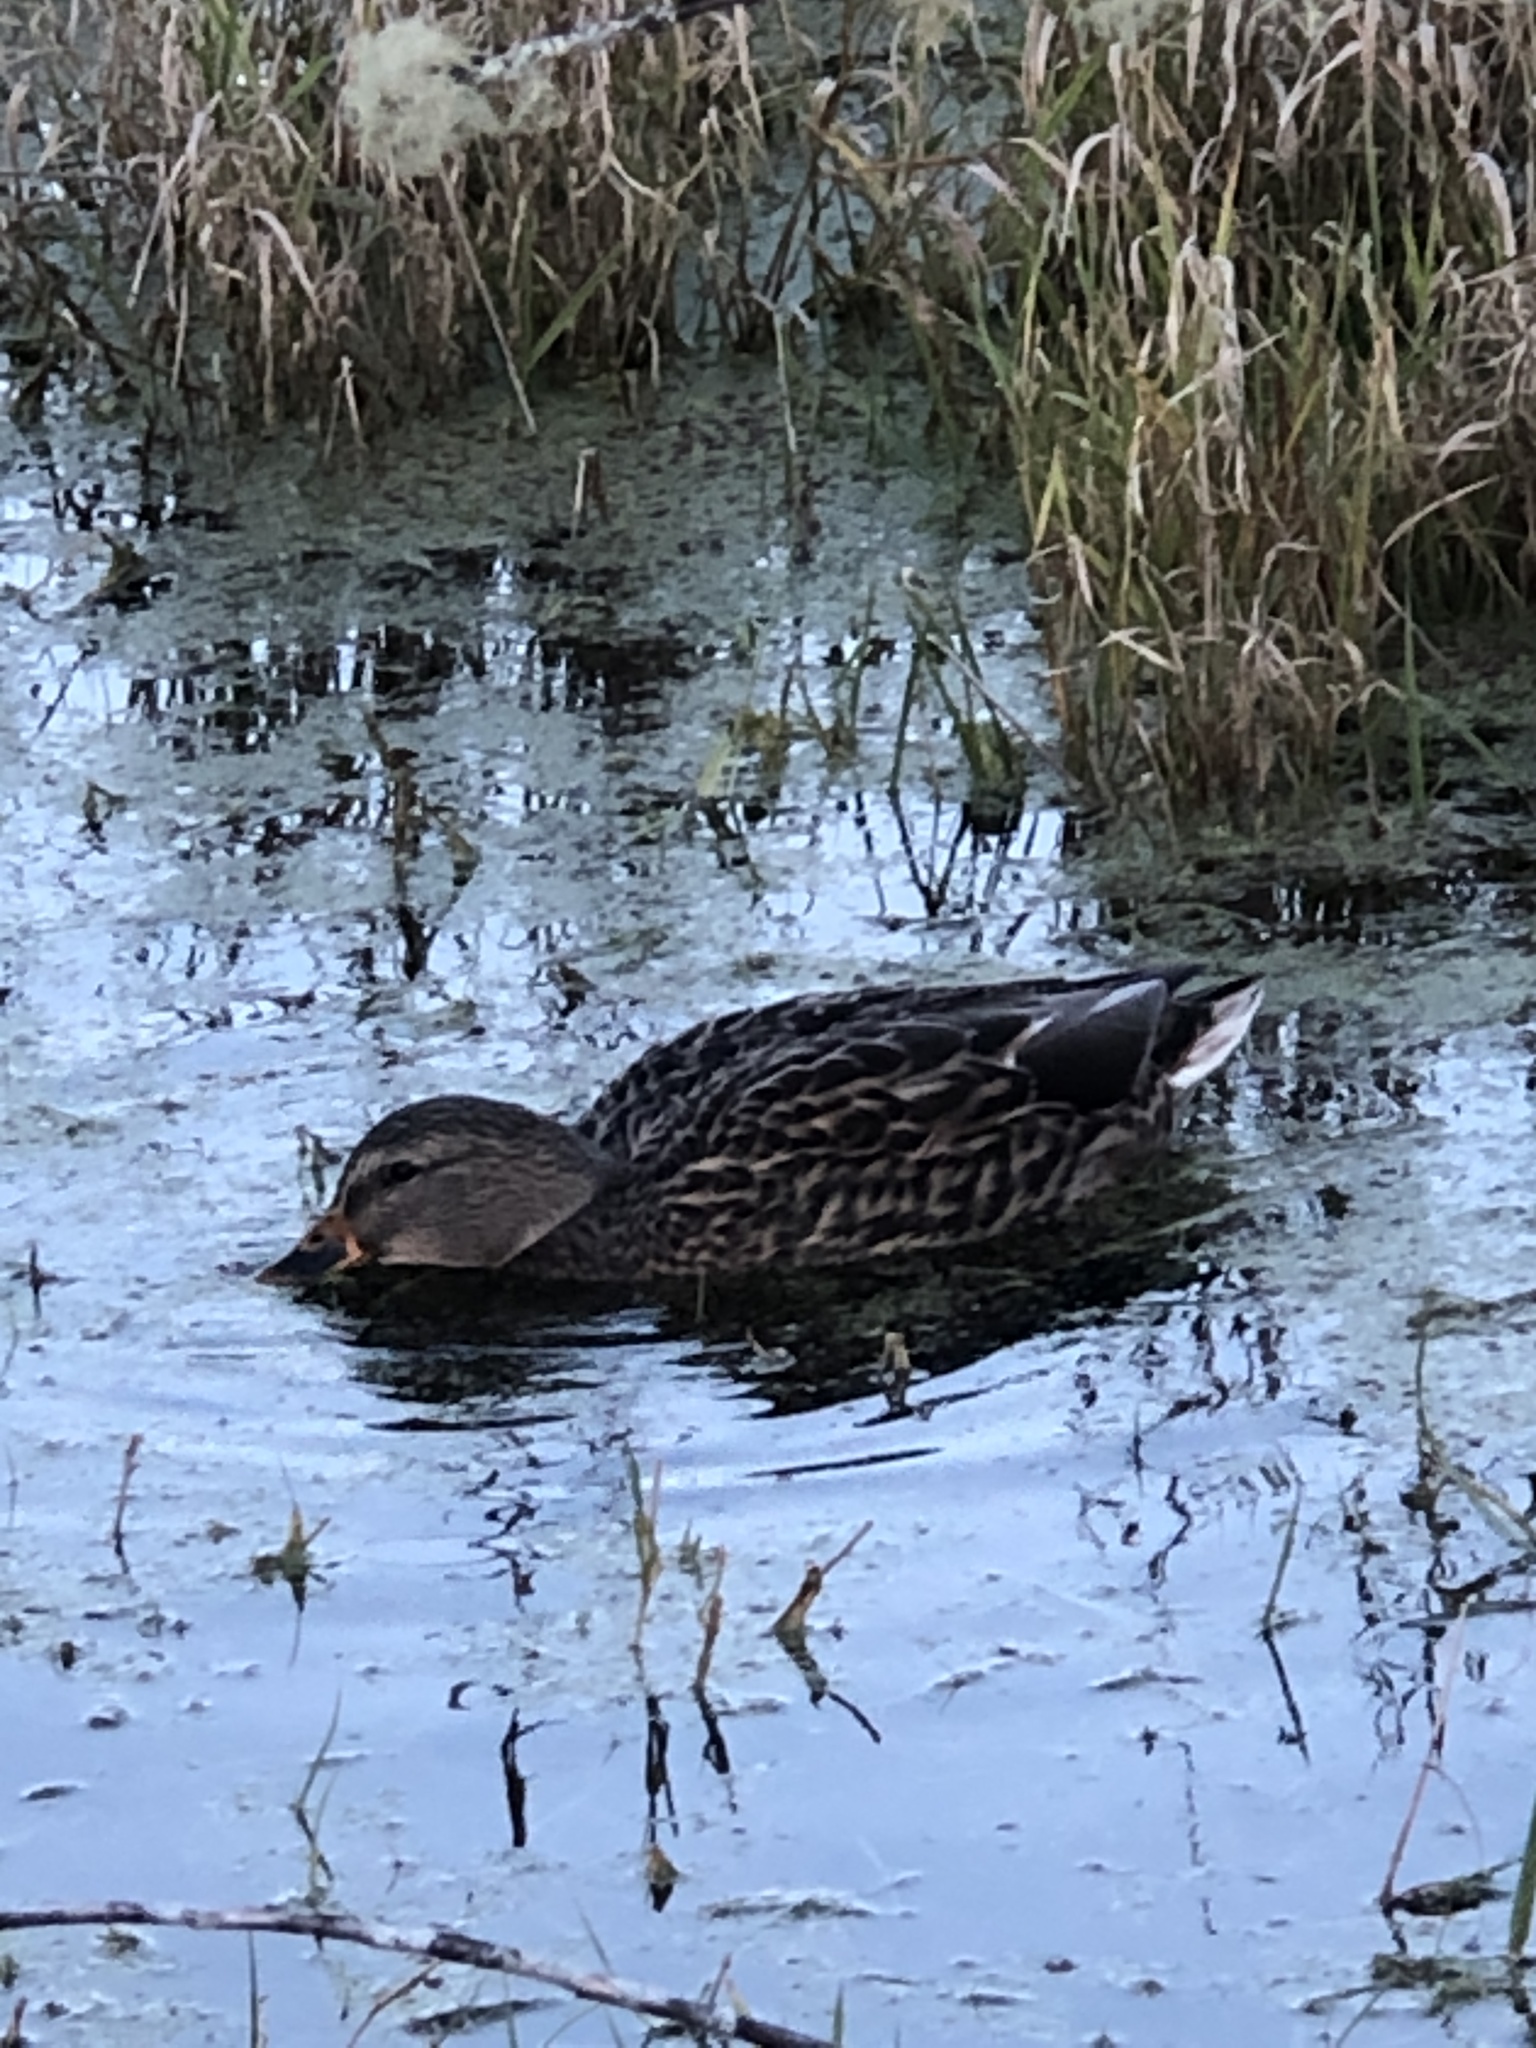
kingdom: Animalia
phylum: Chordata
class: Aves
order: Anseriformes
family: Anatidae
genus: Anas
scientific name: Anas platyrhynchos
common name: Mallard
